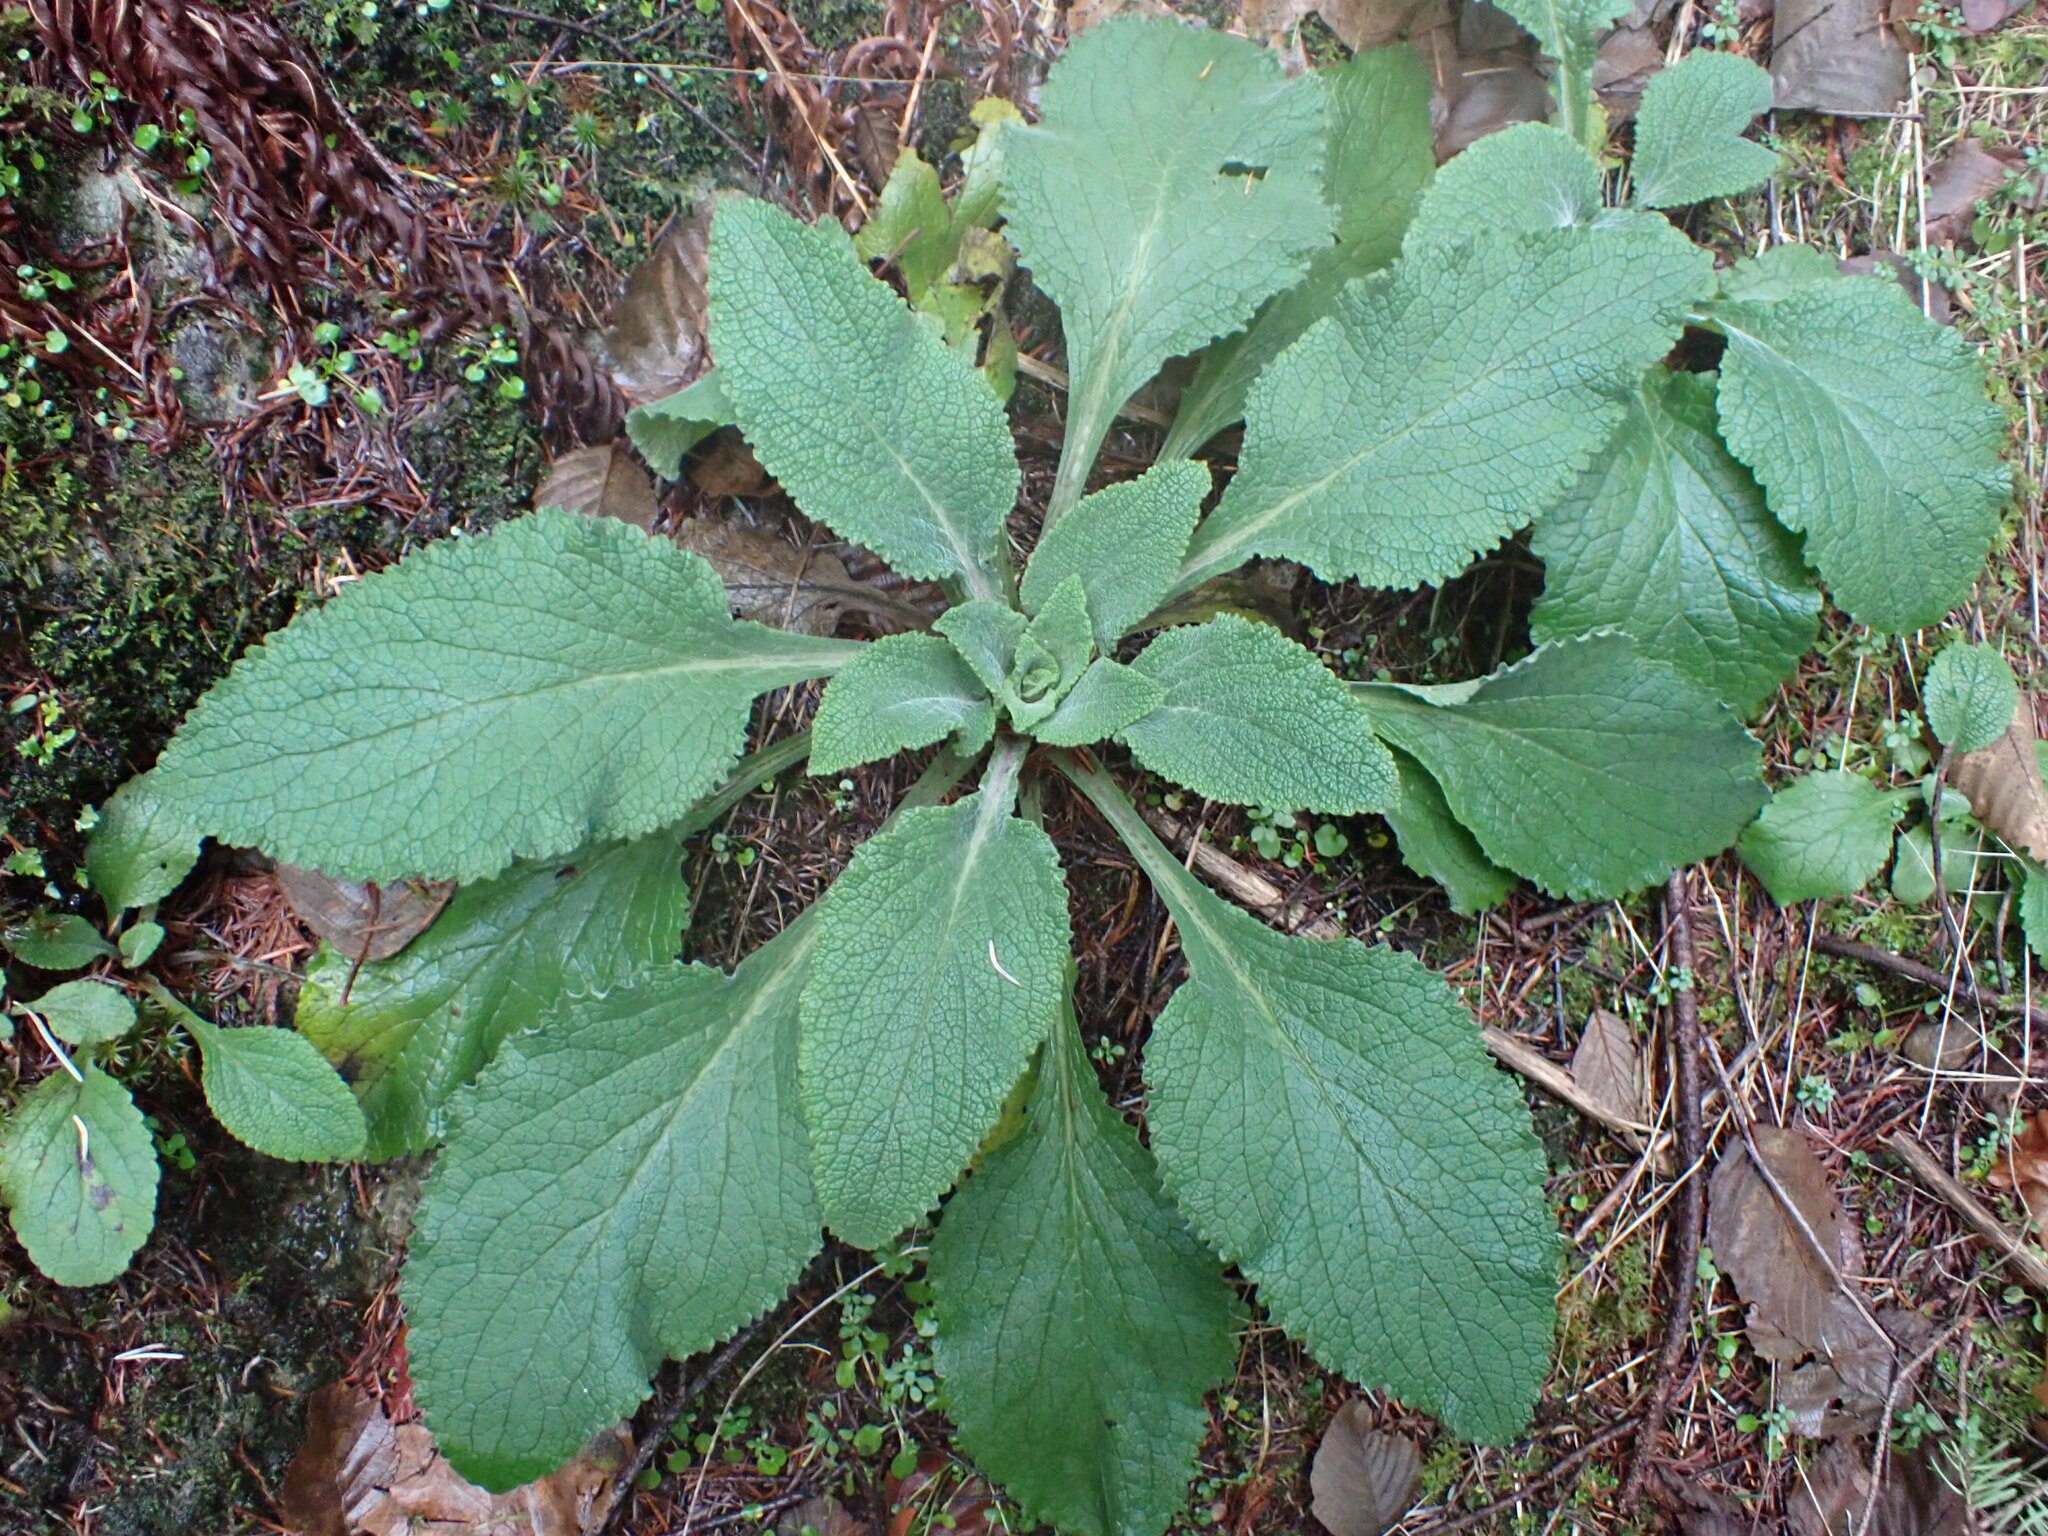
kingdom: Plantae
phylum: Tracheophyta
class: Magnoliopsida
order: Lamiales
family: Plantaginaceae
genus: Digitalis
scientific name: Digitalis purpurea
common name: Foxglove
